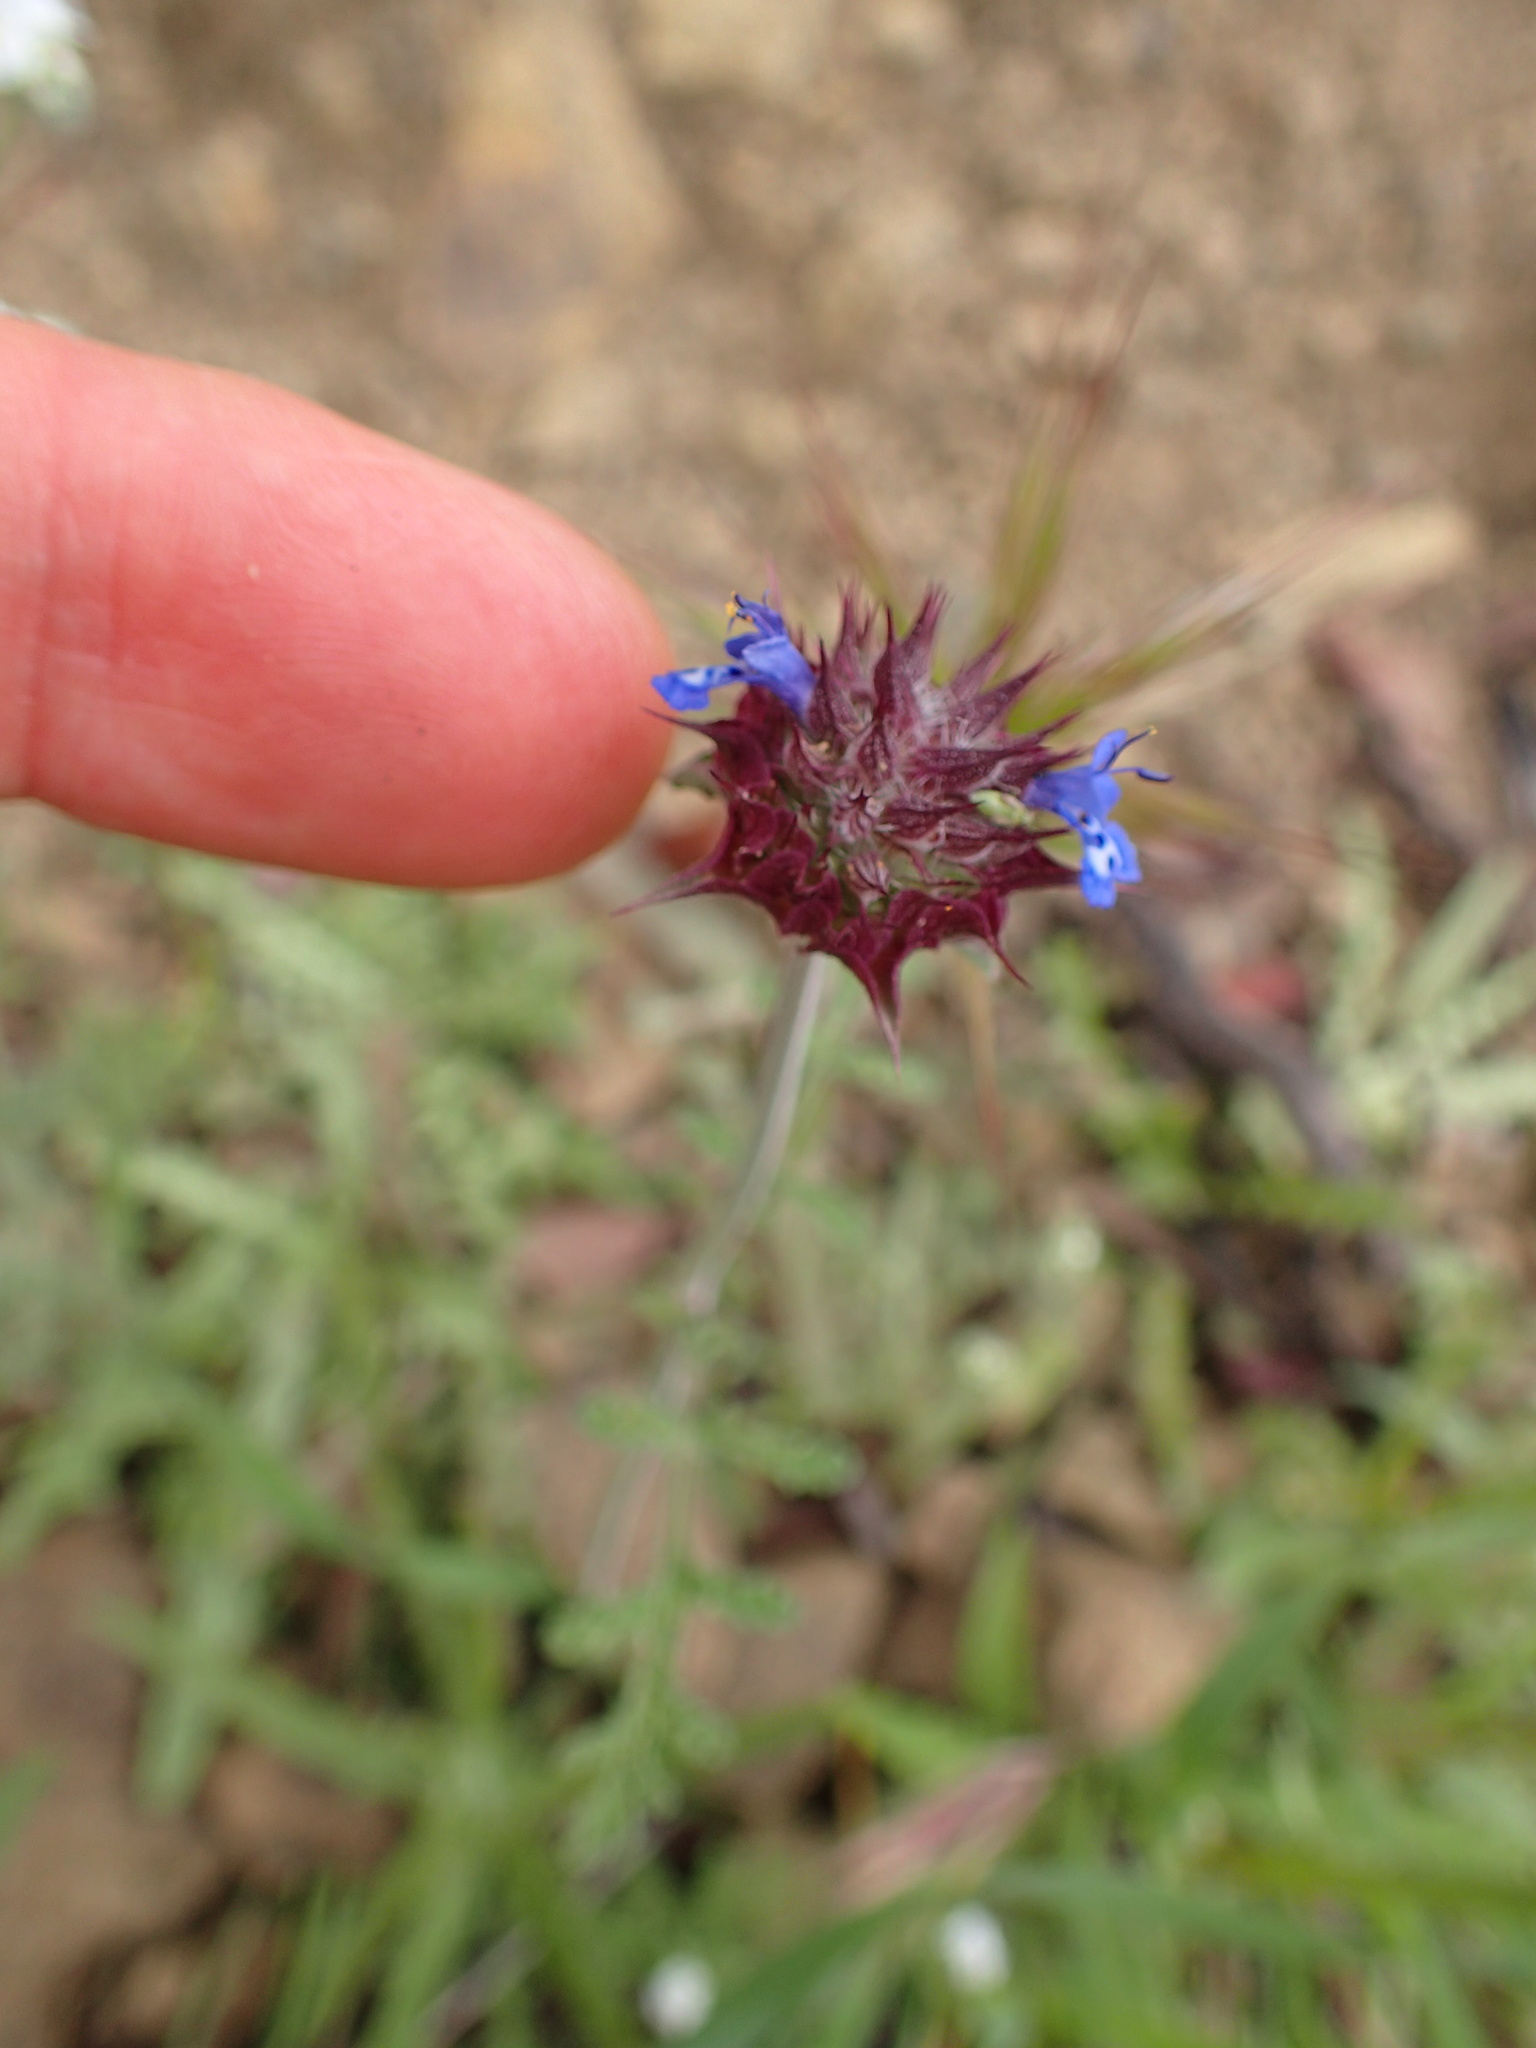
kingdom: Plantae
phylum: Tracheophyta
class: Magnoliopsida
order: Lamiales
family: Lamiaceae
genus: Salvia
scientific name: Salvia columbariae
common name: Chia
